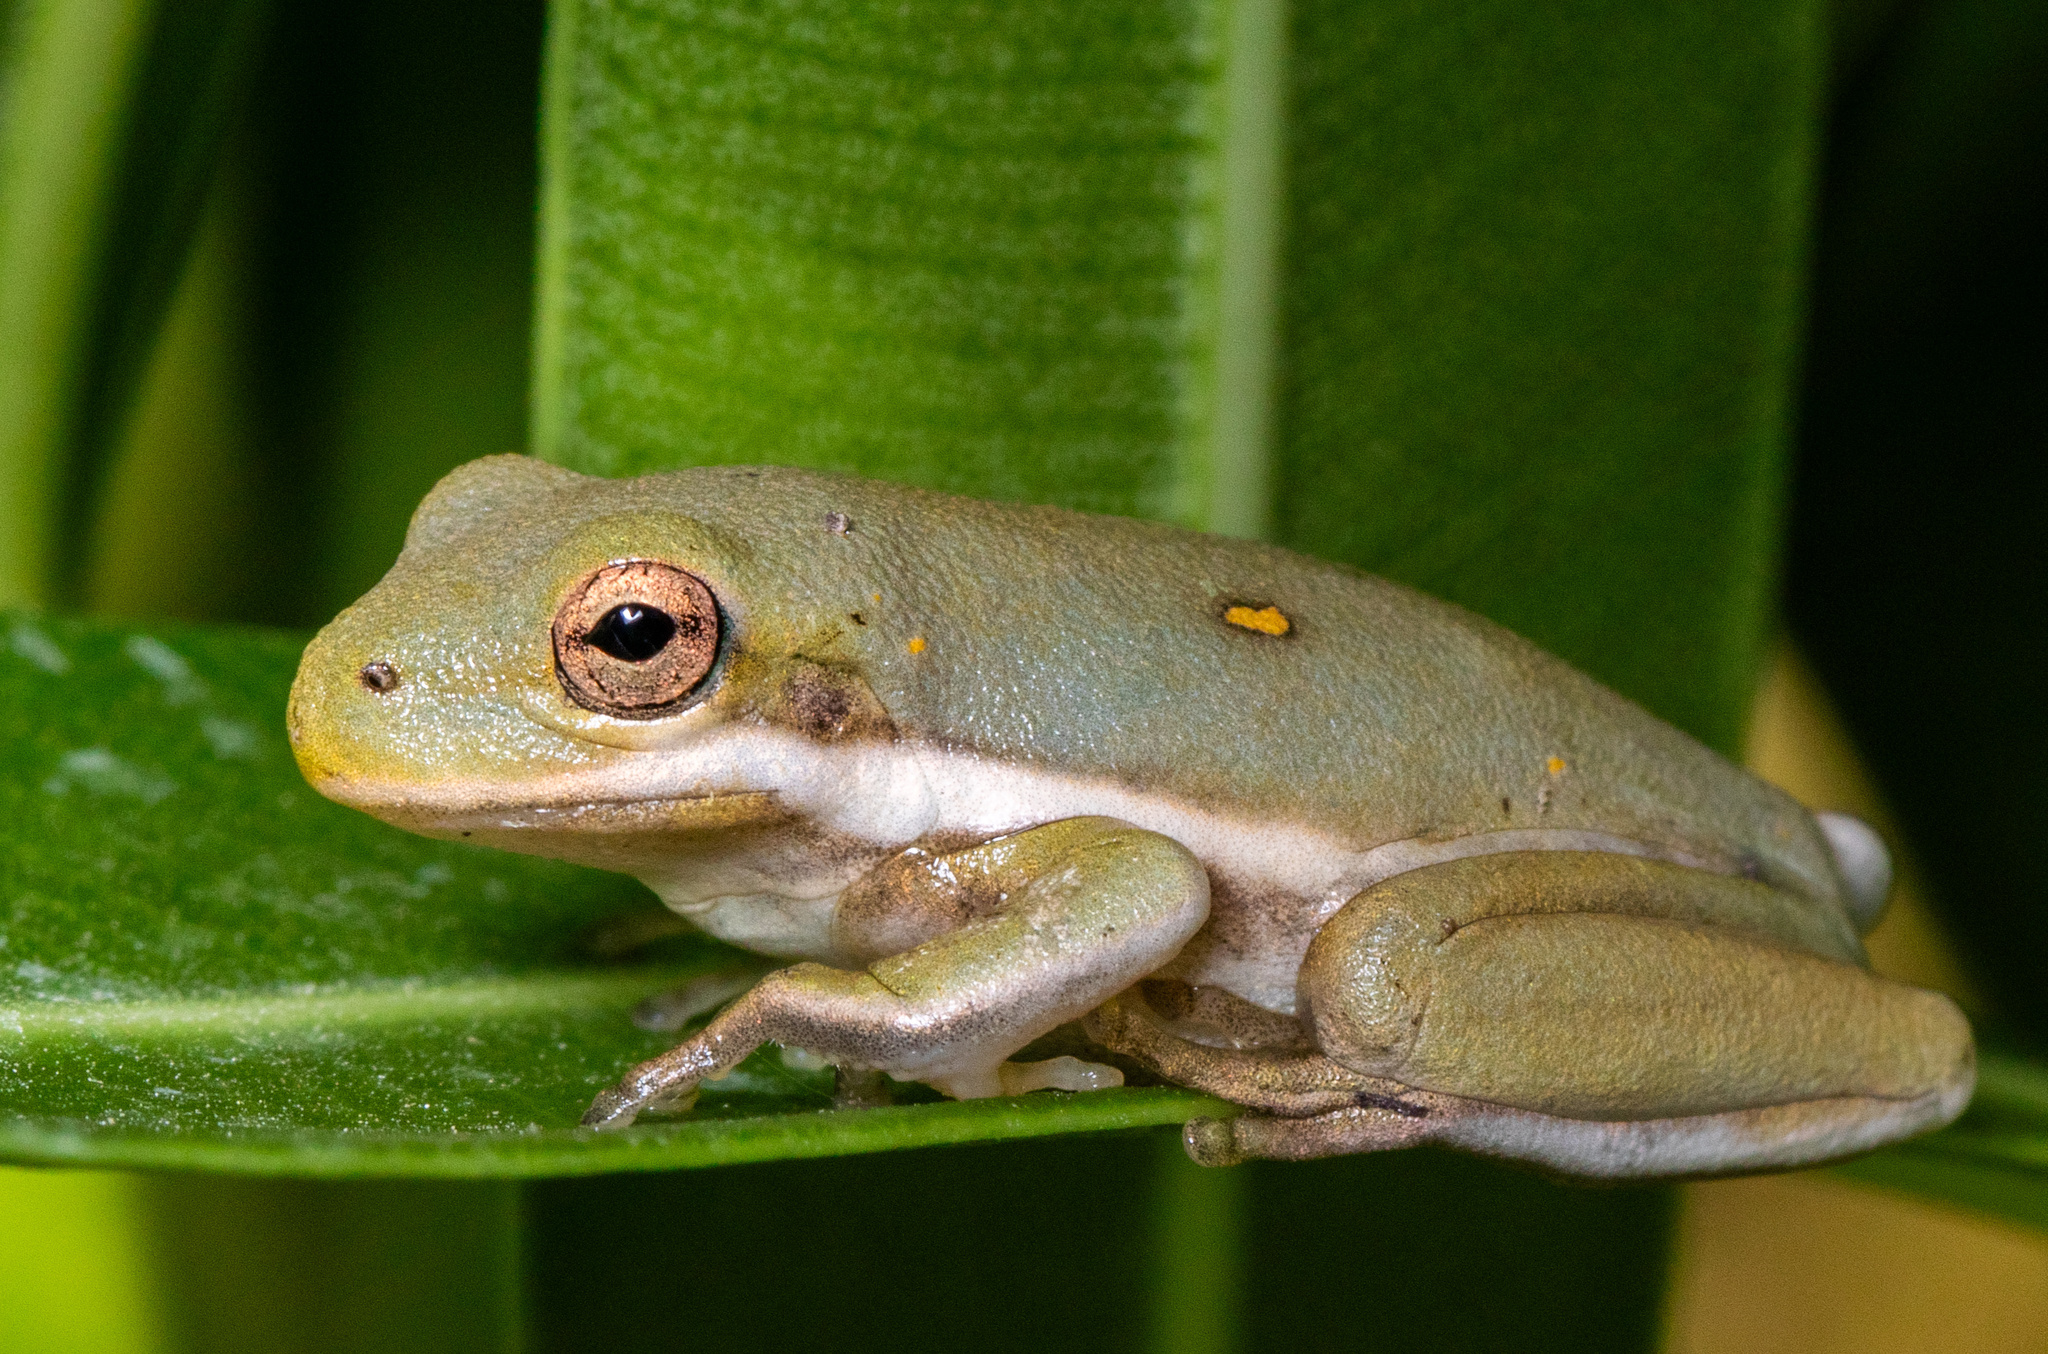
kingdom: Animalia
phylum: Chordata
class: Amphibia
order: Anura
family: Hylidae
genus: Dryophytes
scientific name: Dryophytes cinereus
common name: Green treefrog
